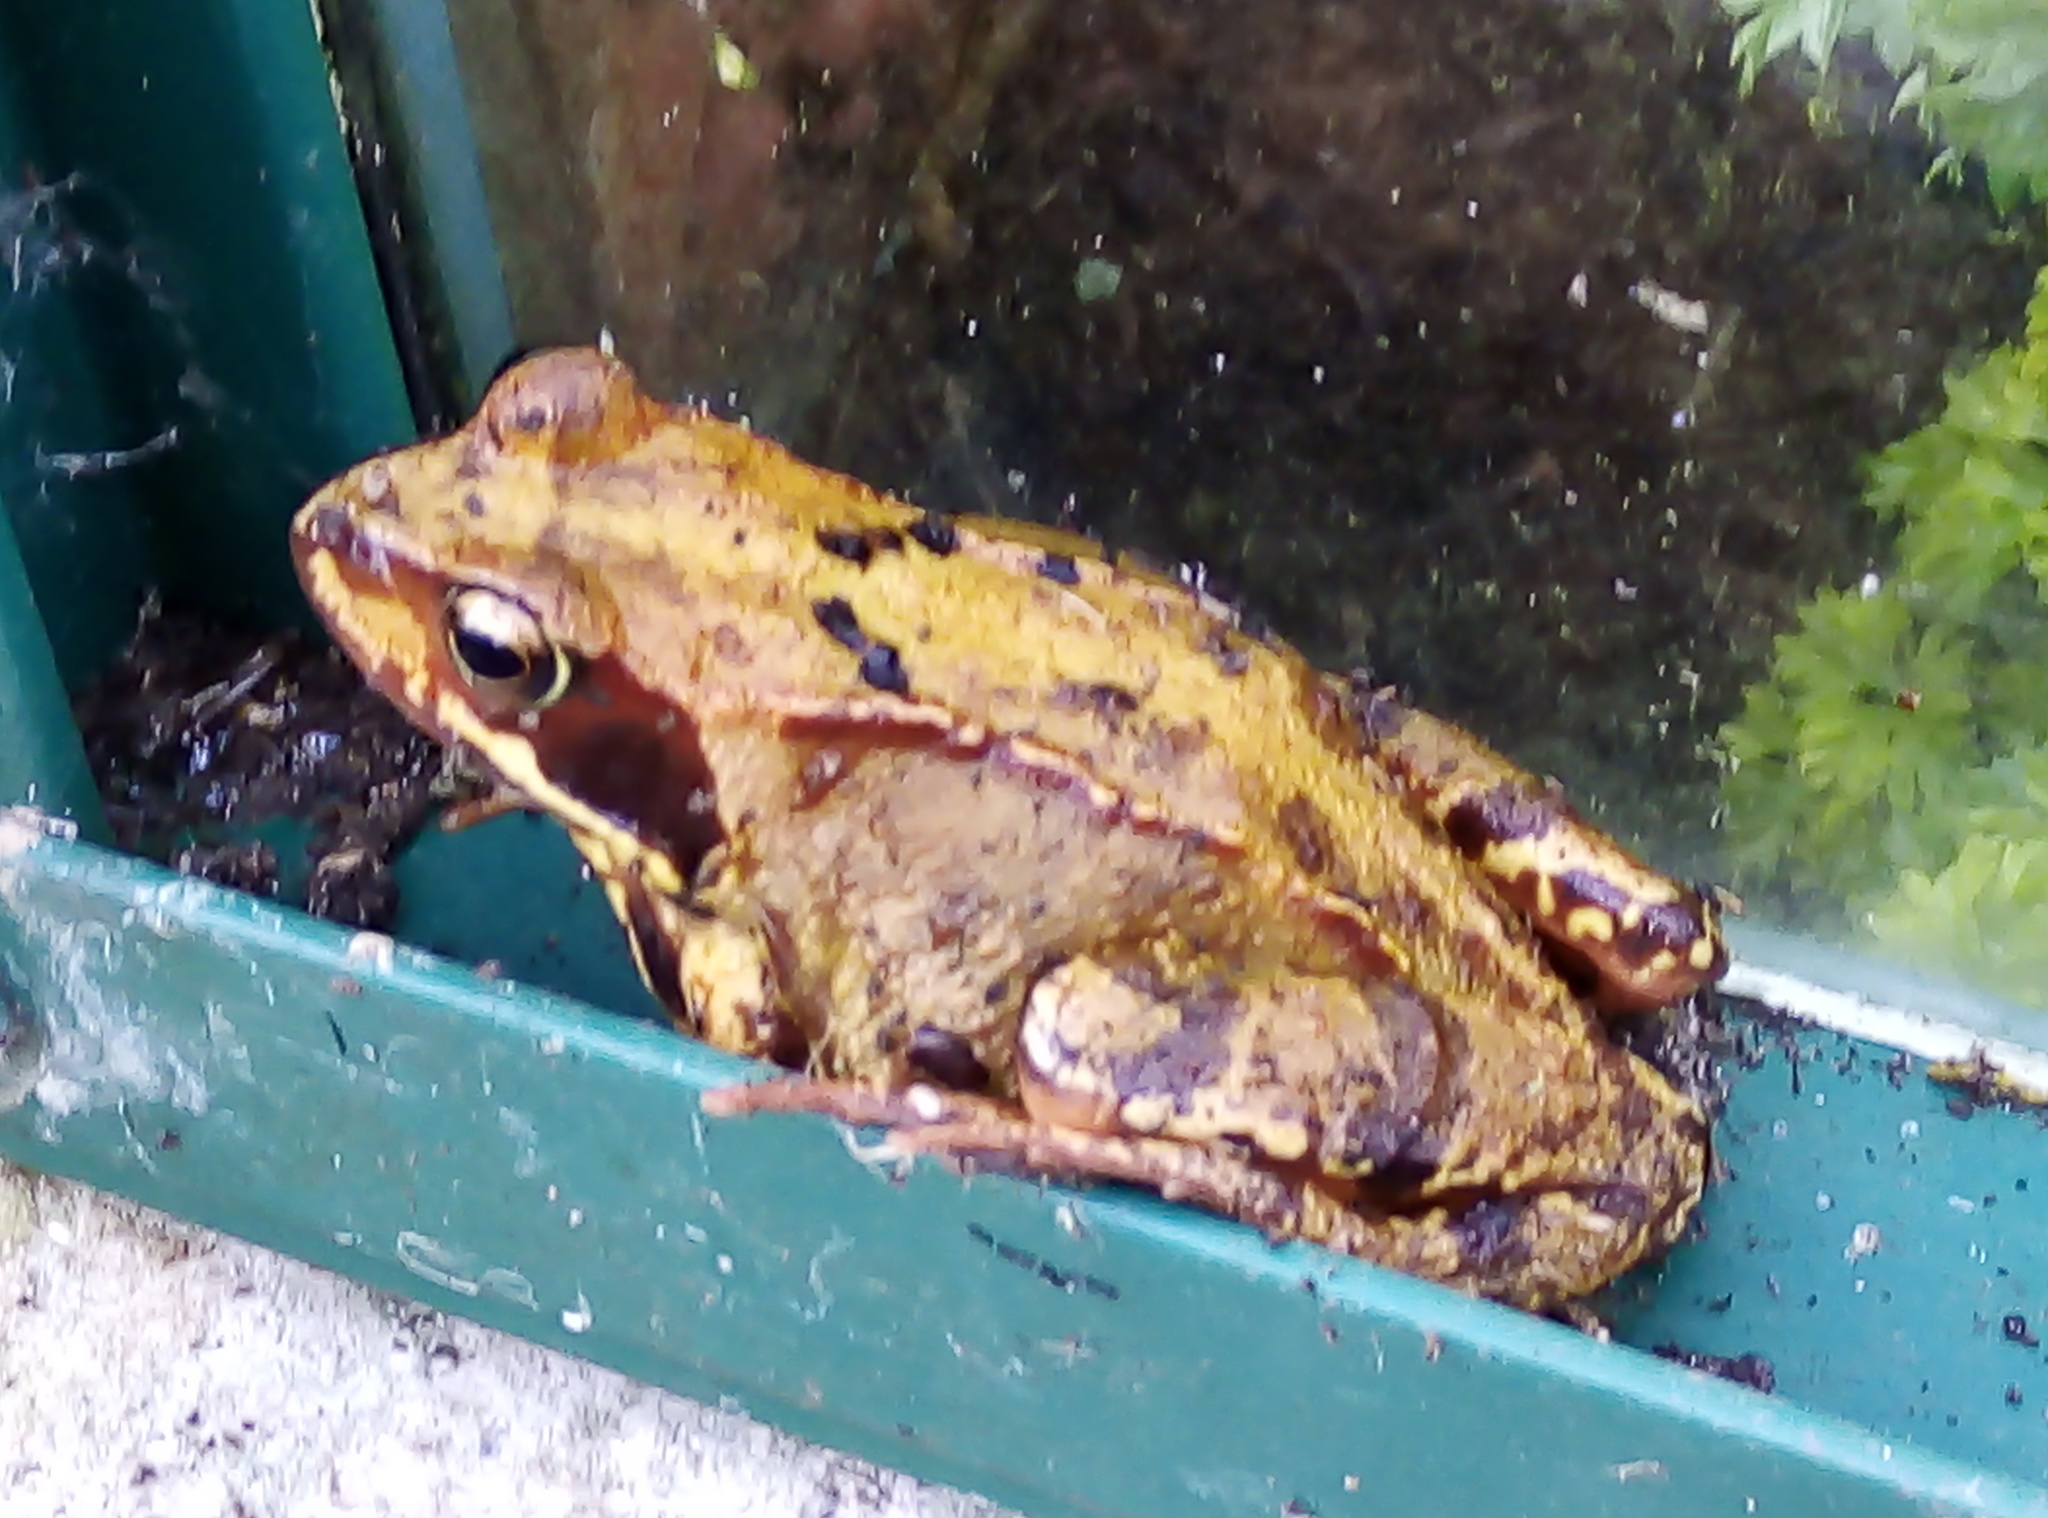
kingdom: Animalia
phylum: Chordata
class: Amphibia
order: Anura
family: Ranidae
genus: Rana
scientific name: Rana temporaria
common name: Common frog
